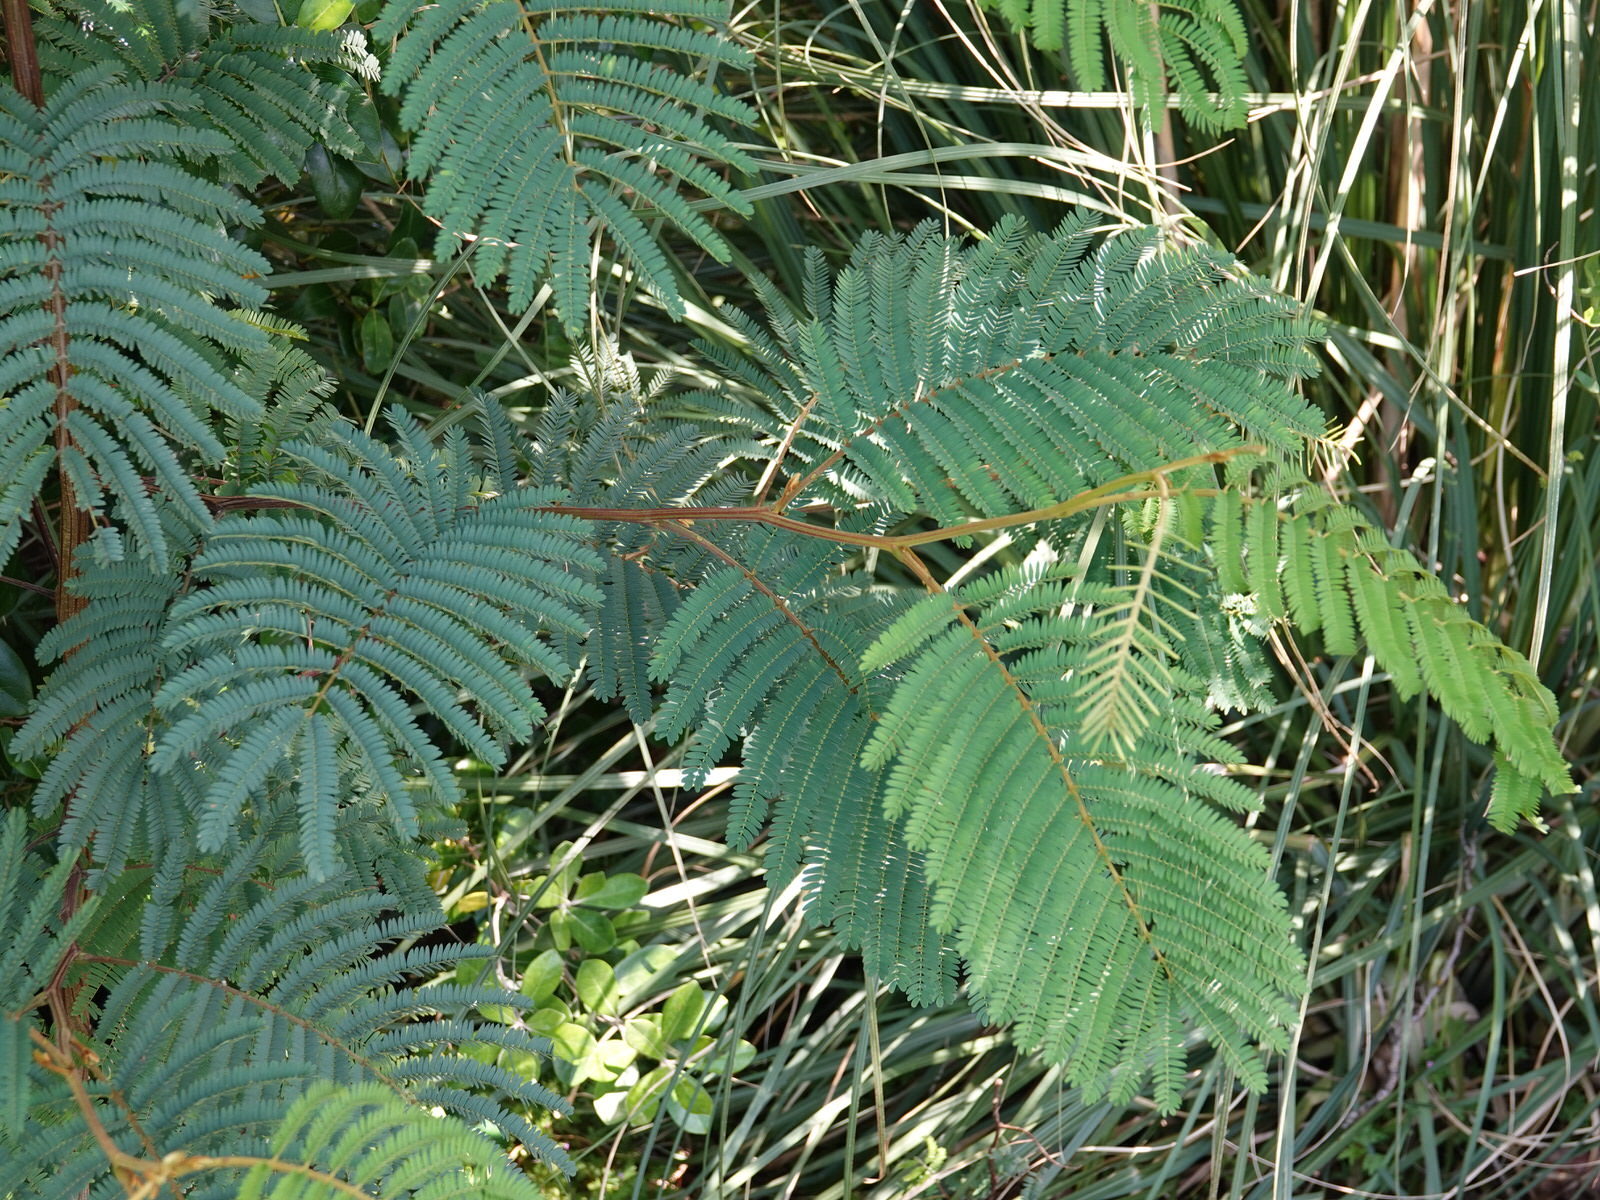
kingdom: Plantae
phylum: Tracheophyta
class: Magnoliopsida
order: Fabales
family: Fabaceae
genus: Paraserianthes
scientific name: Paraserianthes lophantha
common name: Plume albizia
